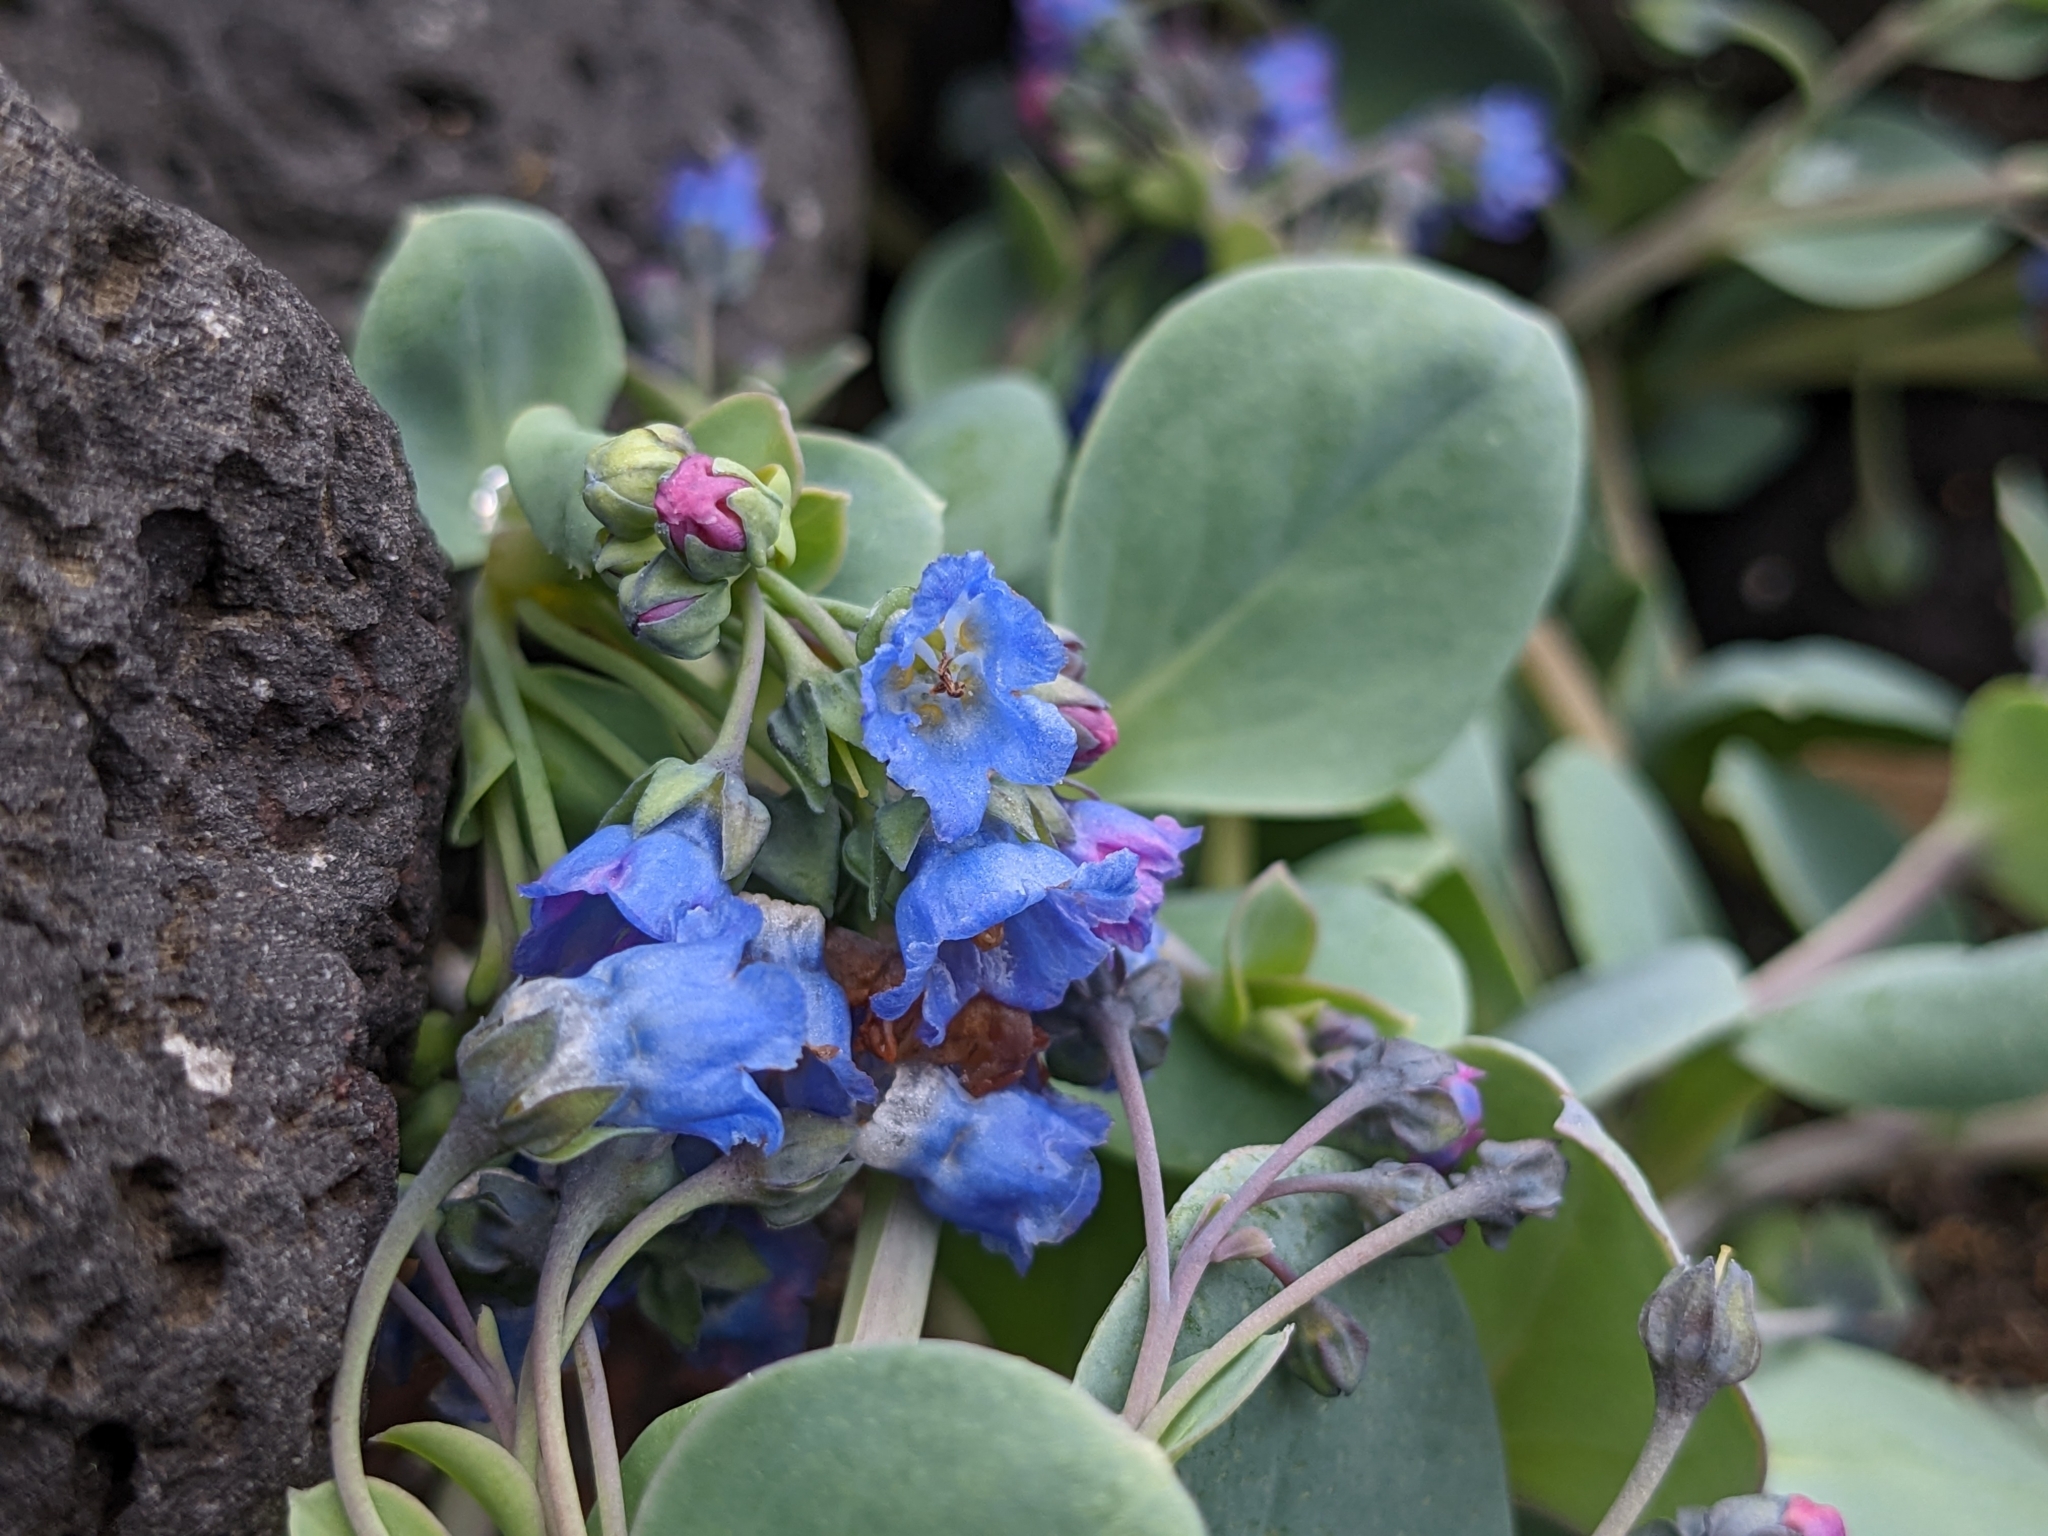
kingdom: Plantae
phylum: Tracheophyta
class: Magnoliopsida
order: Boraginales
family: Boraginaceae
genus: Mertensia
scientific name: Mertensia maritima
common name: Oysterplant
